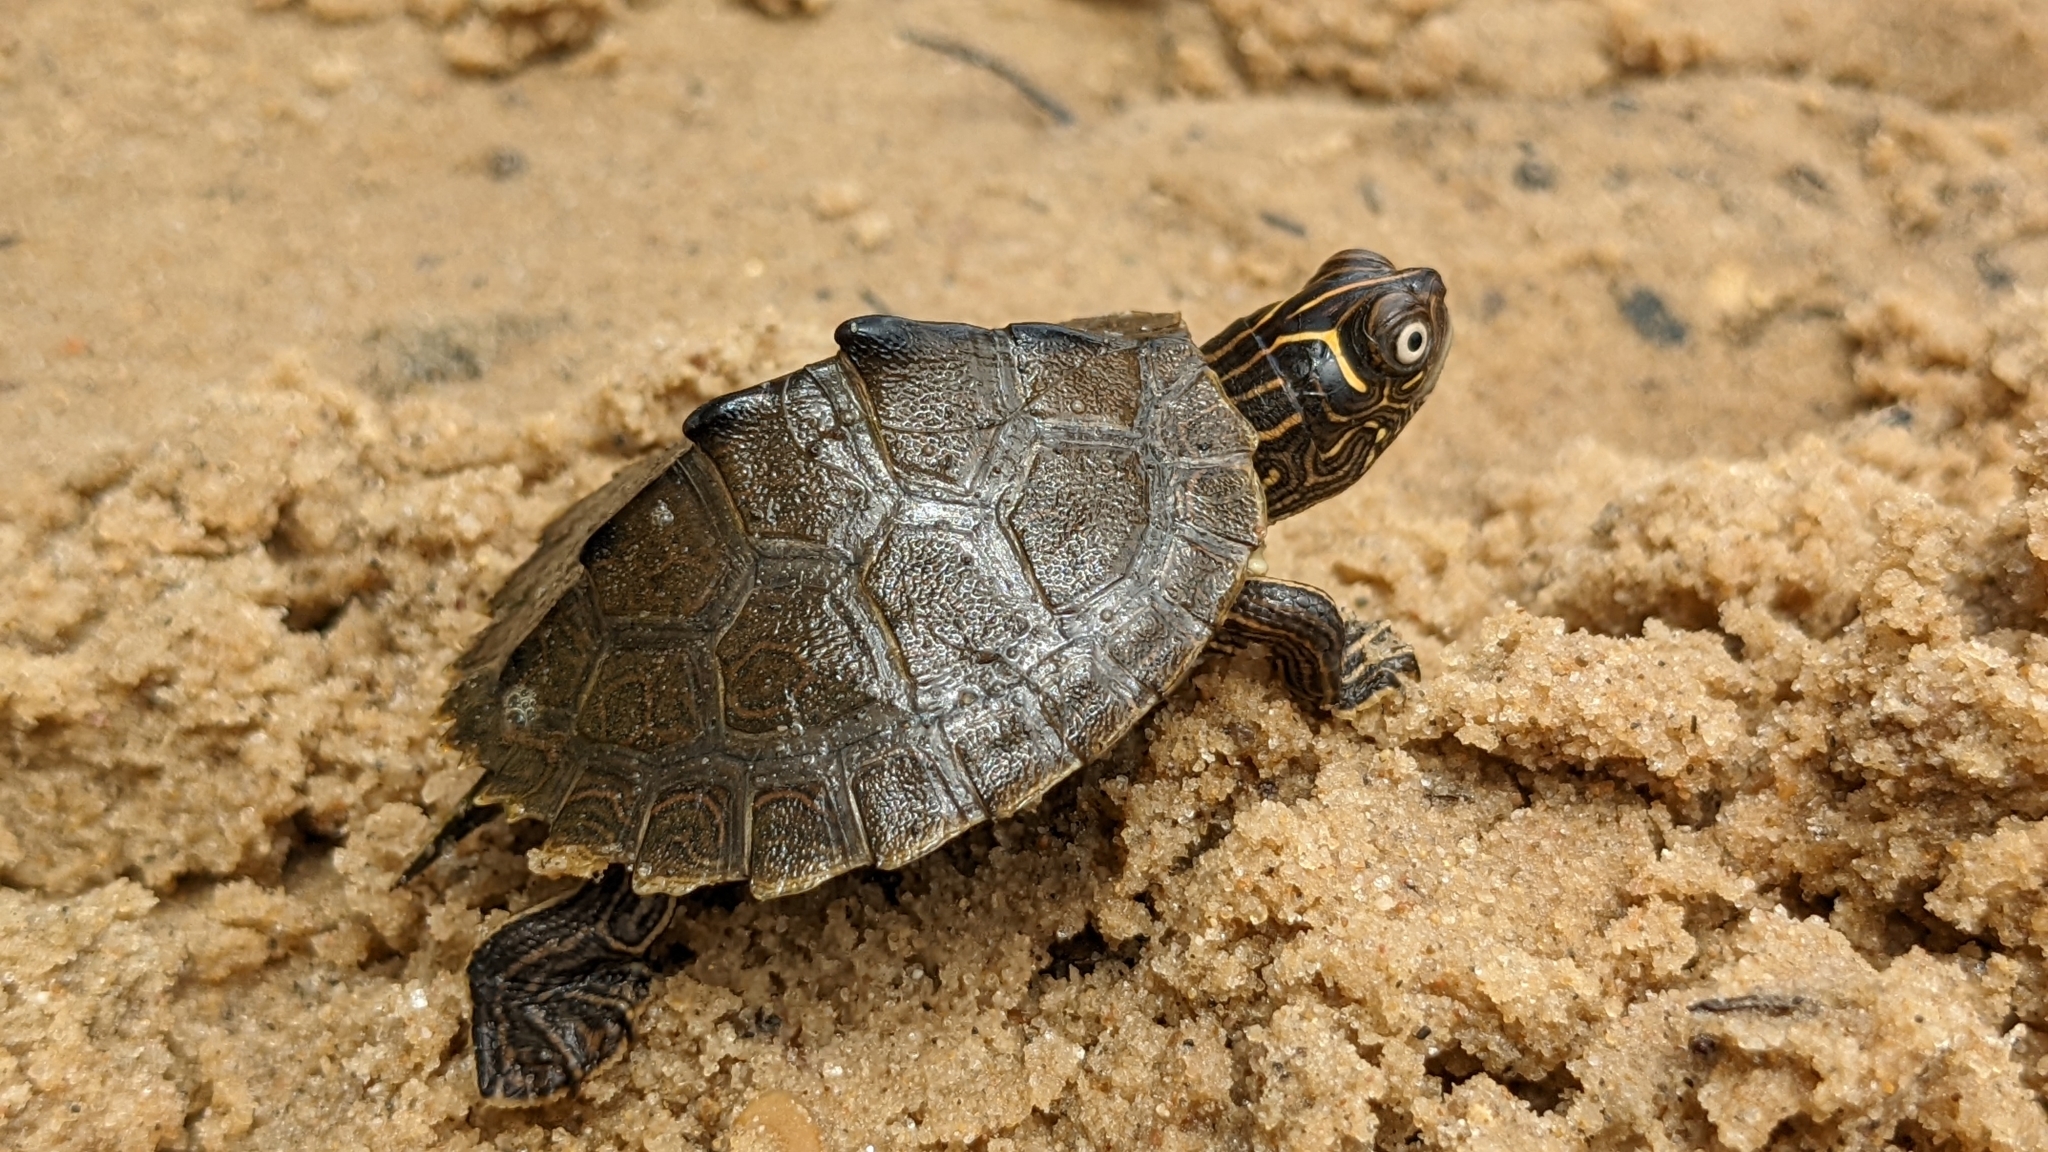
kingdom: Animalia
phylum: Chordata
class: Testudines
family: Emydidae
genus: Graptemys
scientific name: Graptemys pseudogeographica
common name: False map turtle
